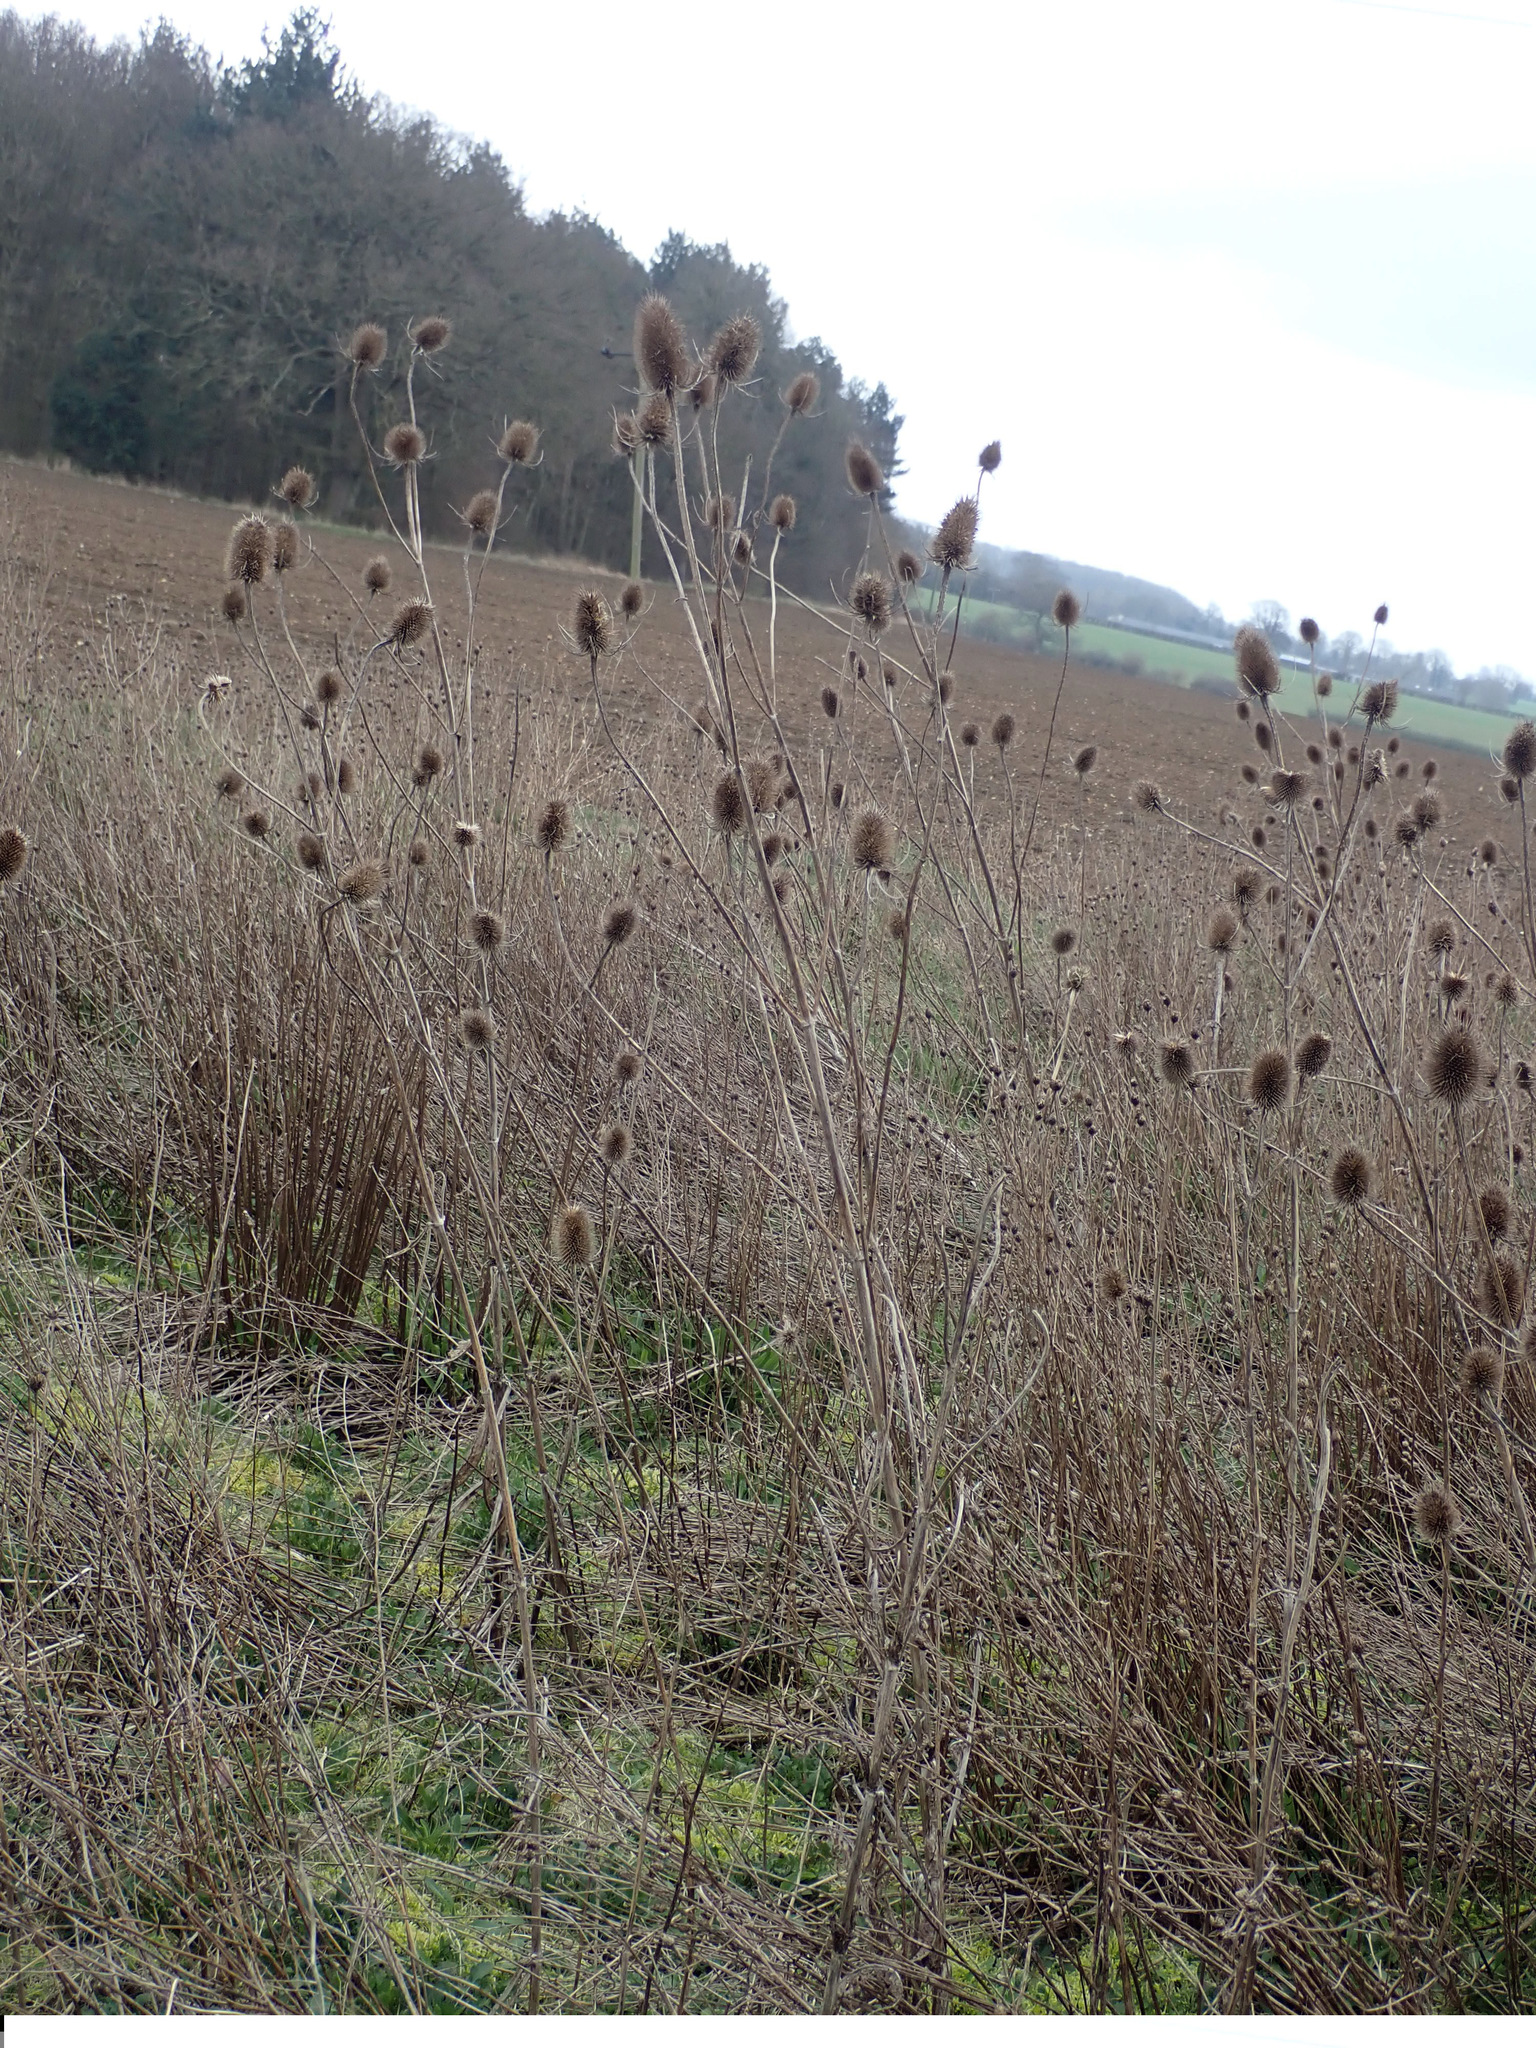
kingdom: Plantae
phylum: Tracheophyta
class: Magnoliopsida
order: Dipsacales
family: Caprifoliaceae
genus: Dipsacus
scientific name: Dipsacus fullonum
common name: Teasel
